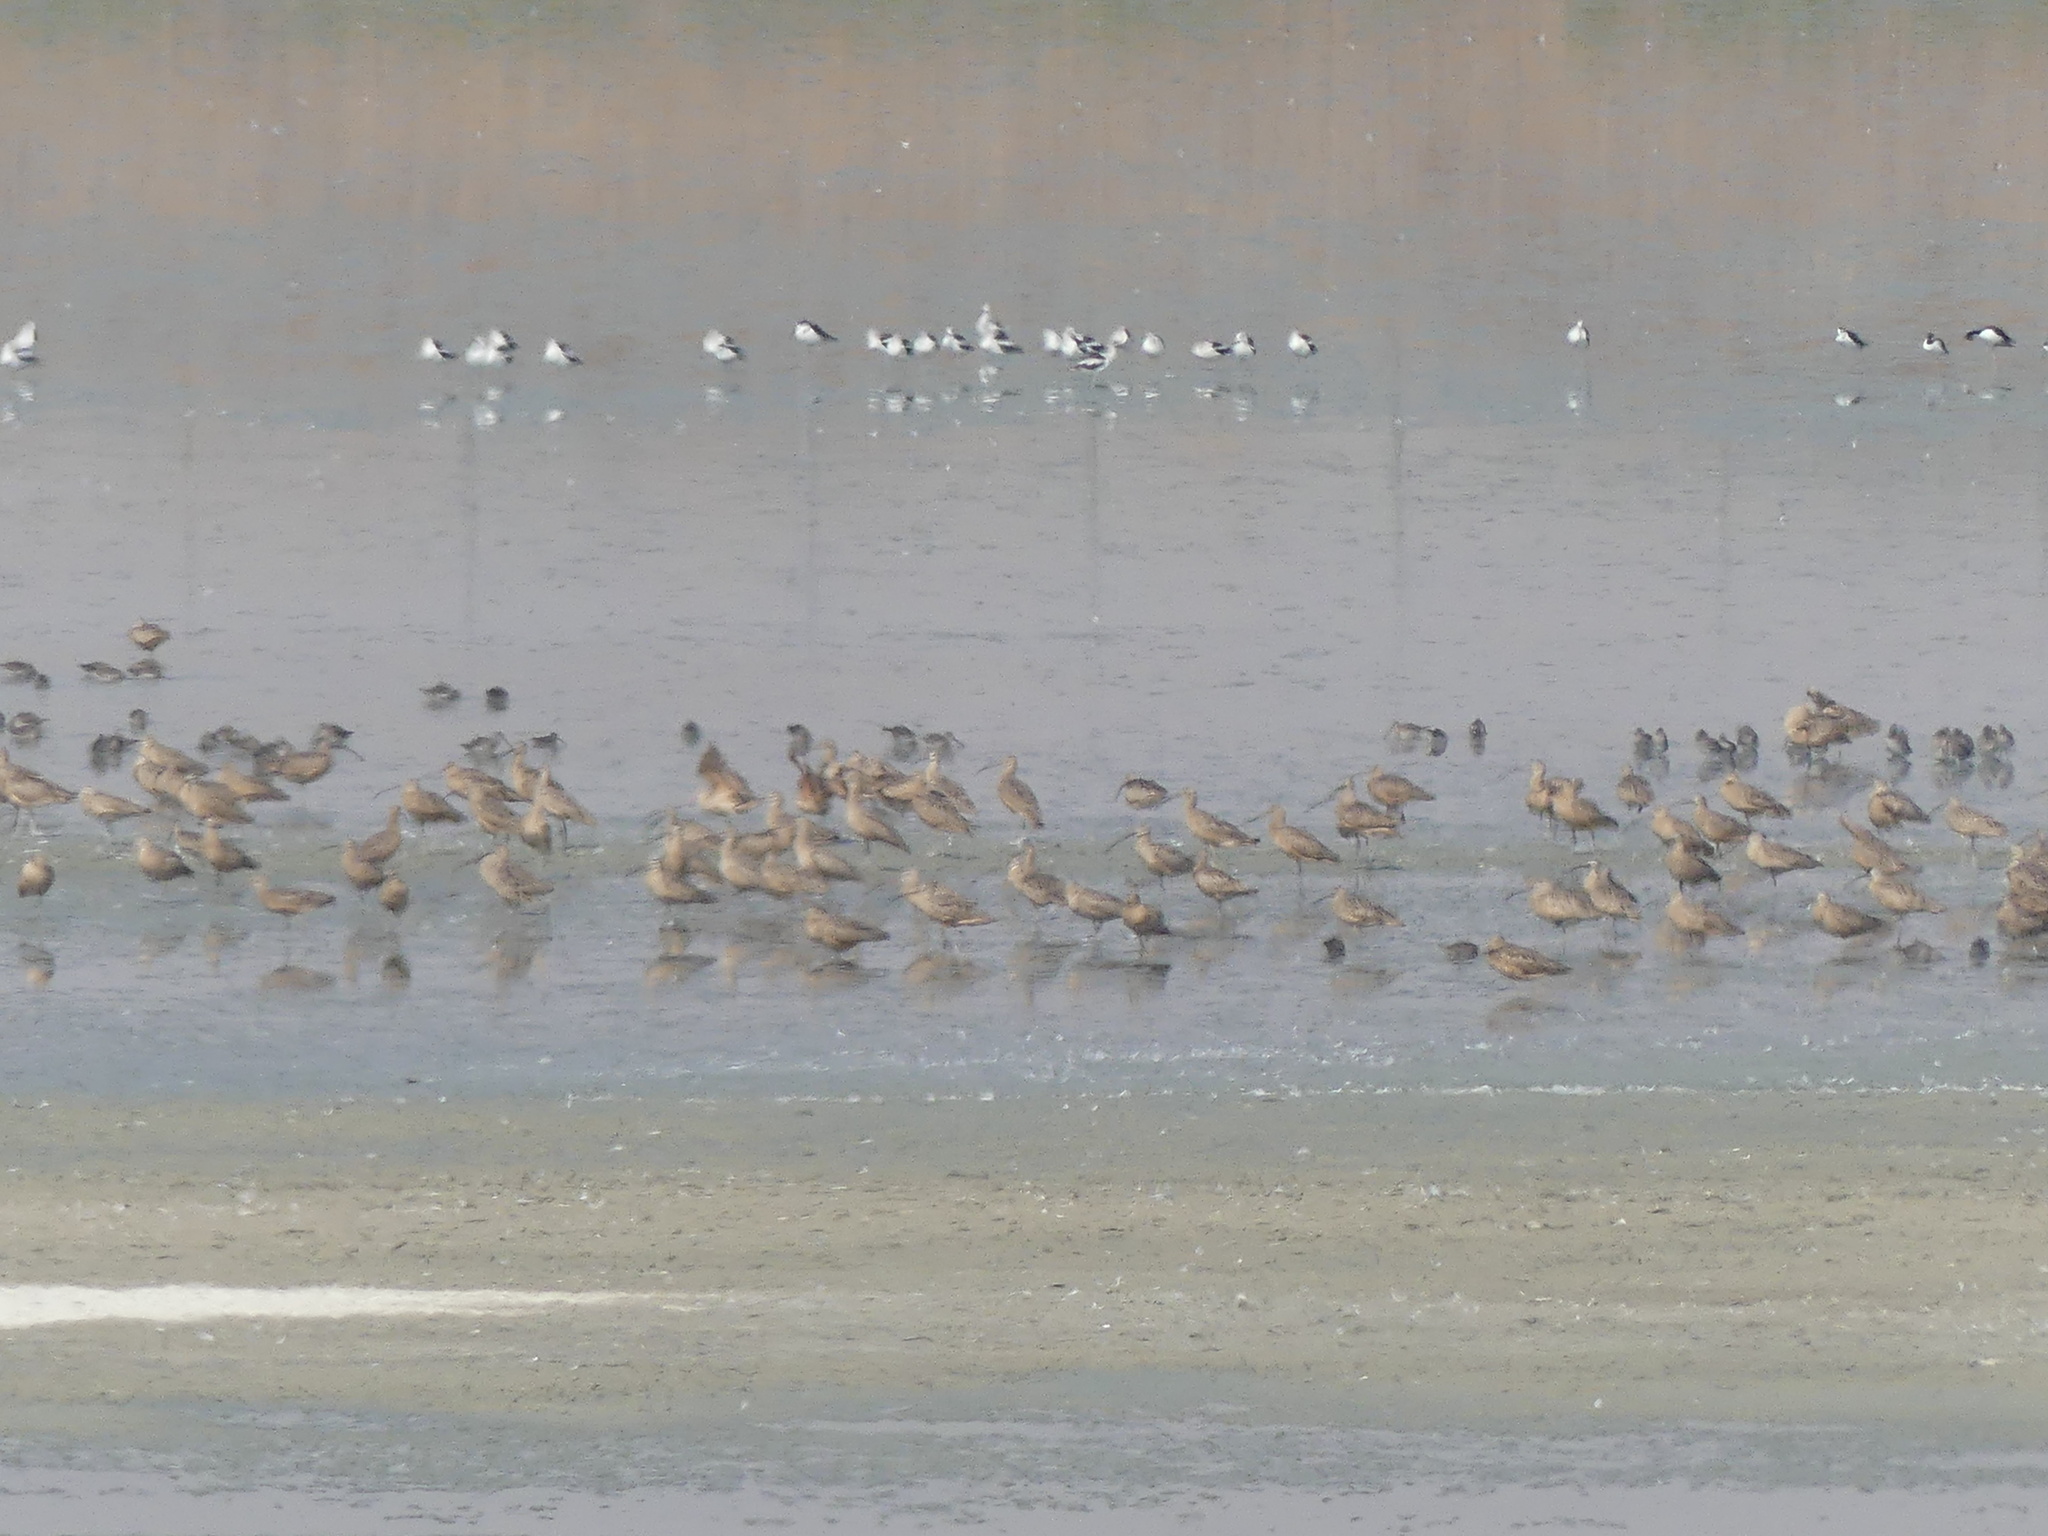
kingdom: Animalia
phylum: Chordata
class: Aves
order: Charadriiformes
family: Scolopacidae
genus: Numenius
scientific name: Numenius americanus
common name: Long-billed curlew
